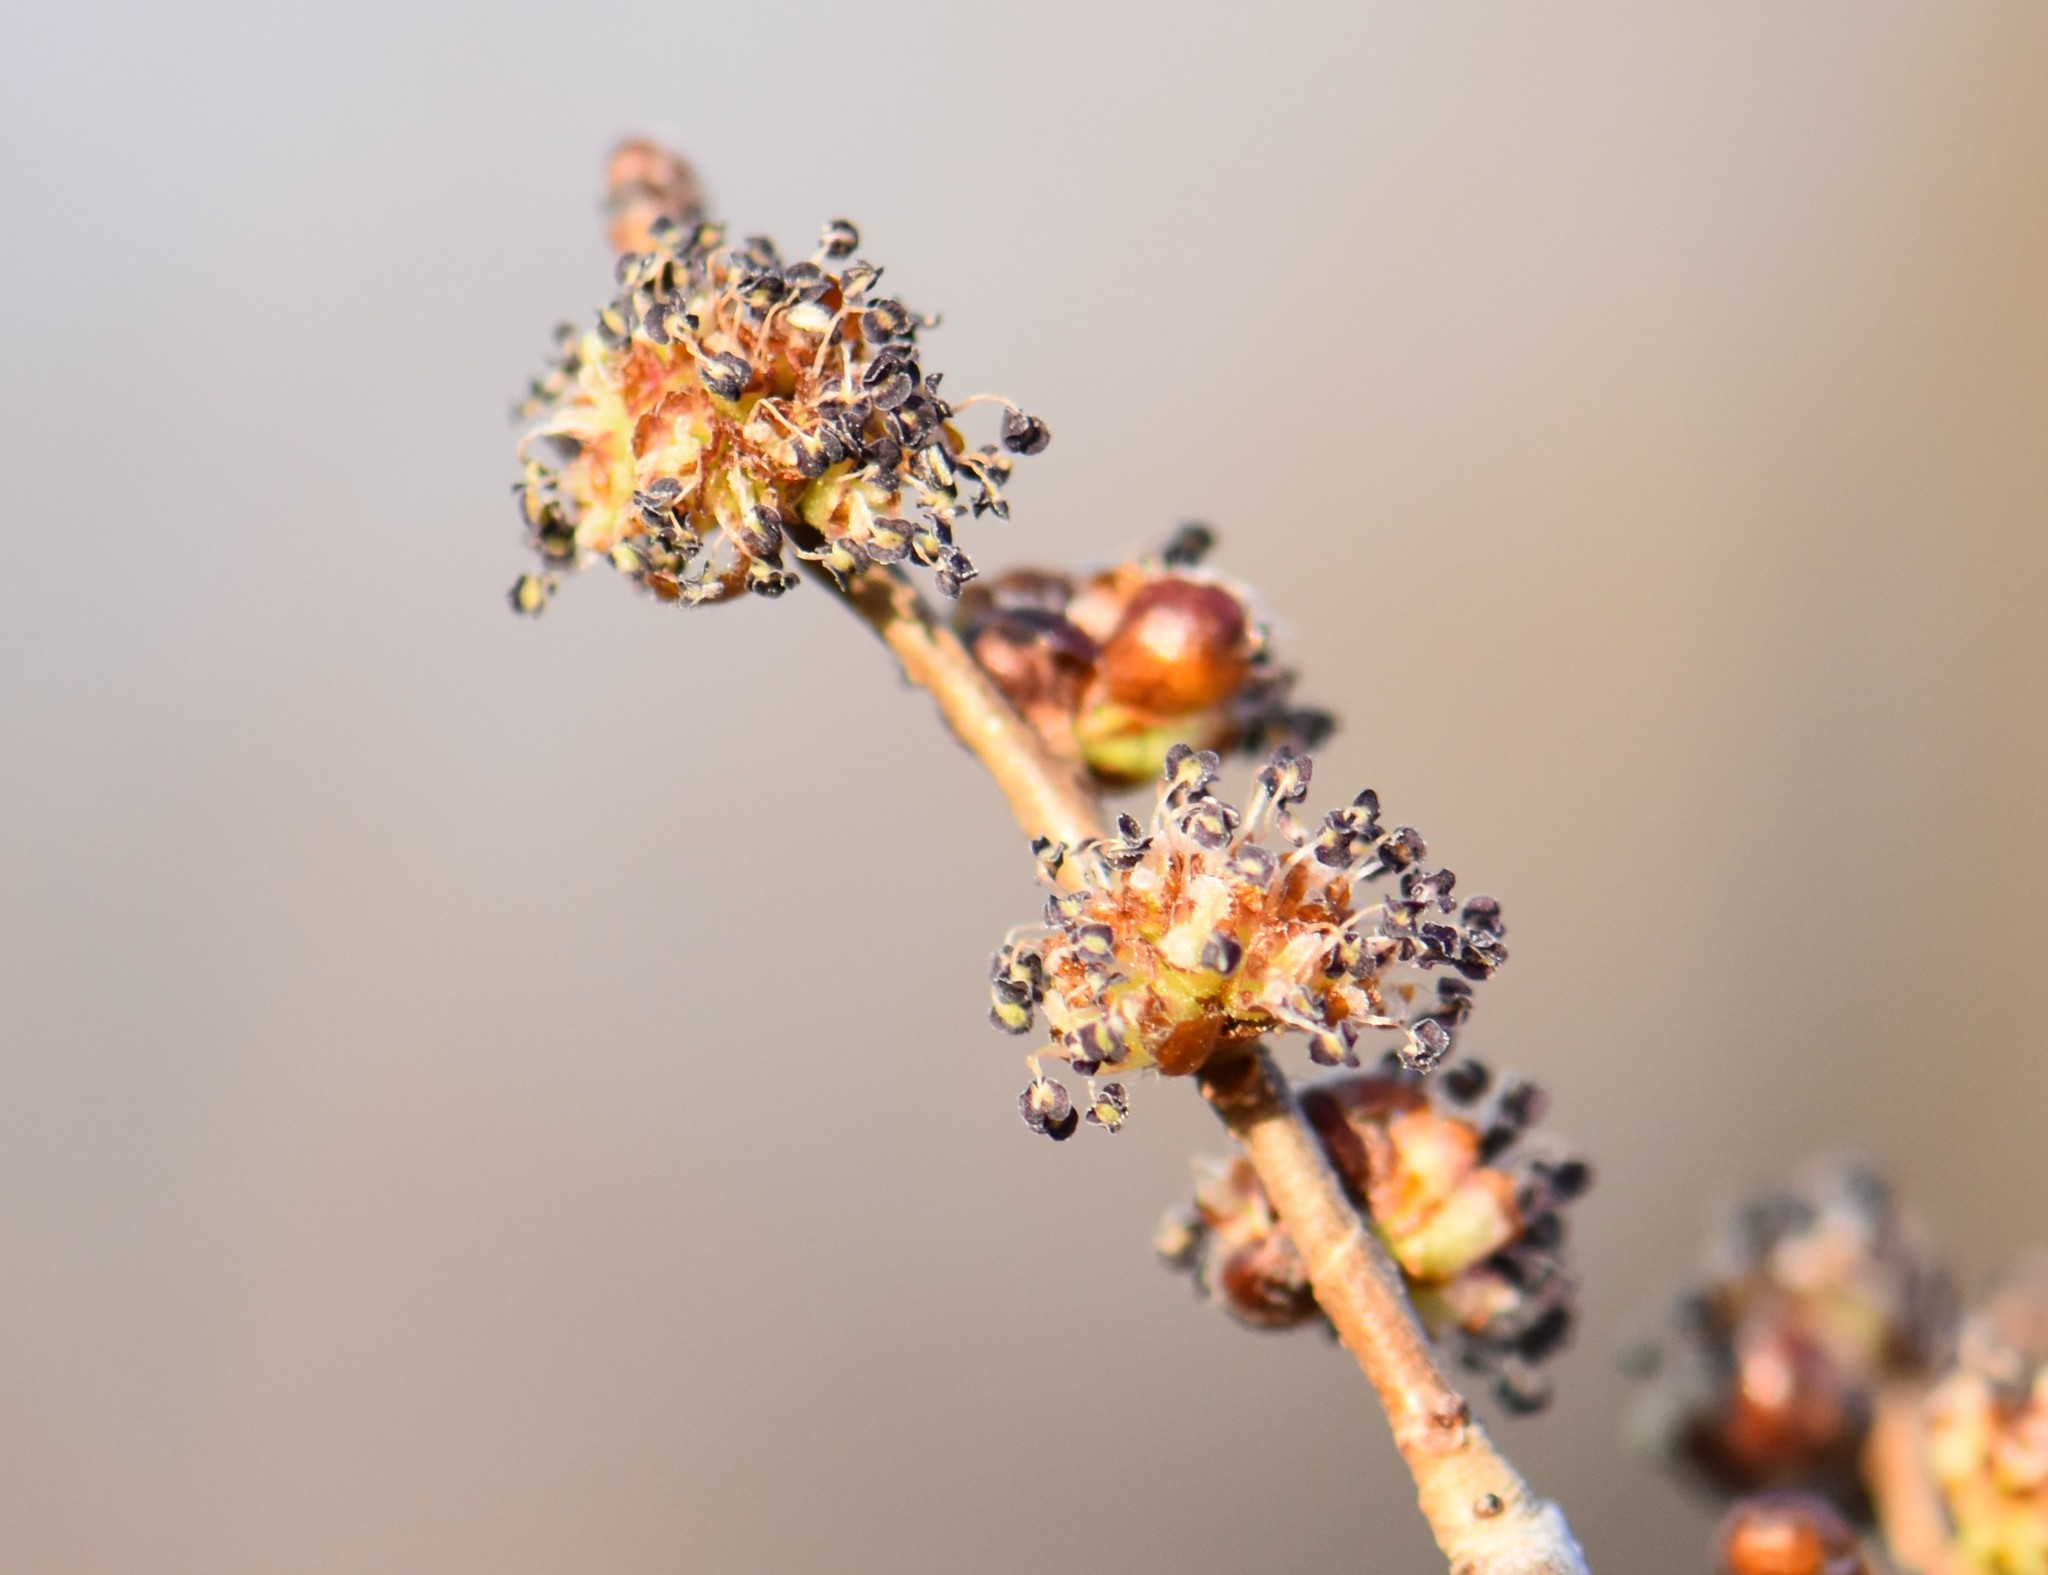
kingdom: Plantae
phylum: Tracheophyta
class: Magnoliopsida
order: Rosales
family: Ulmaceae
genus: Ulmus
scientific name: Ulmus pumila
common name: Siberian elm
